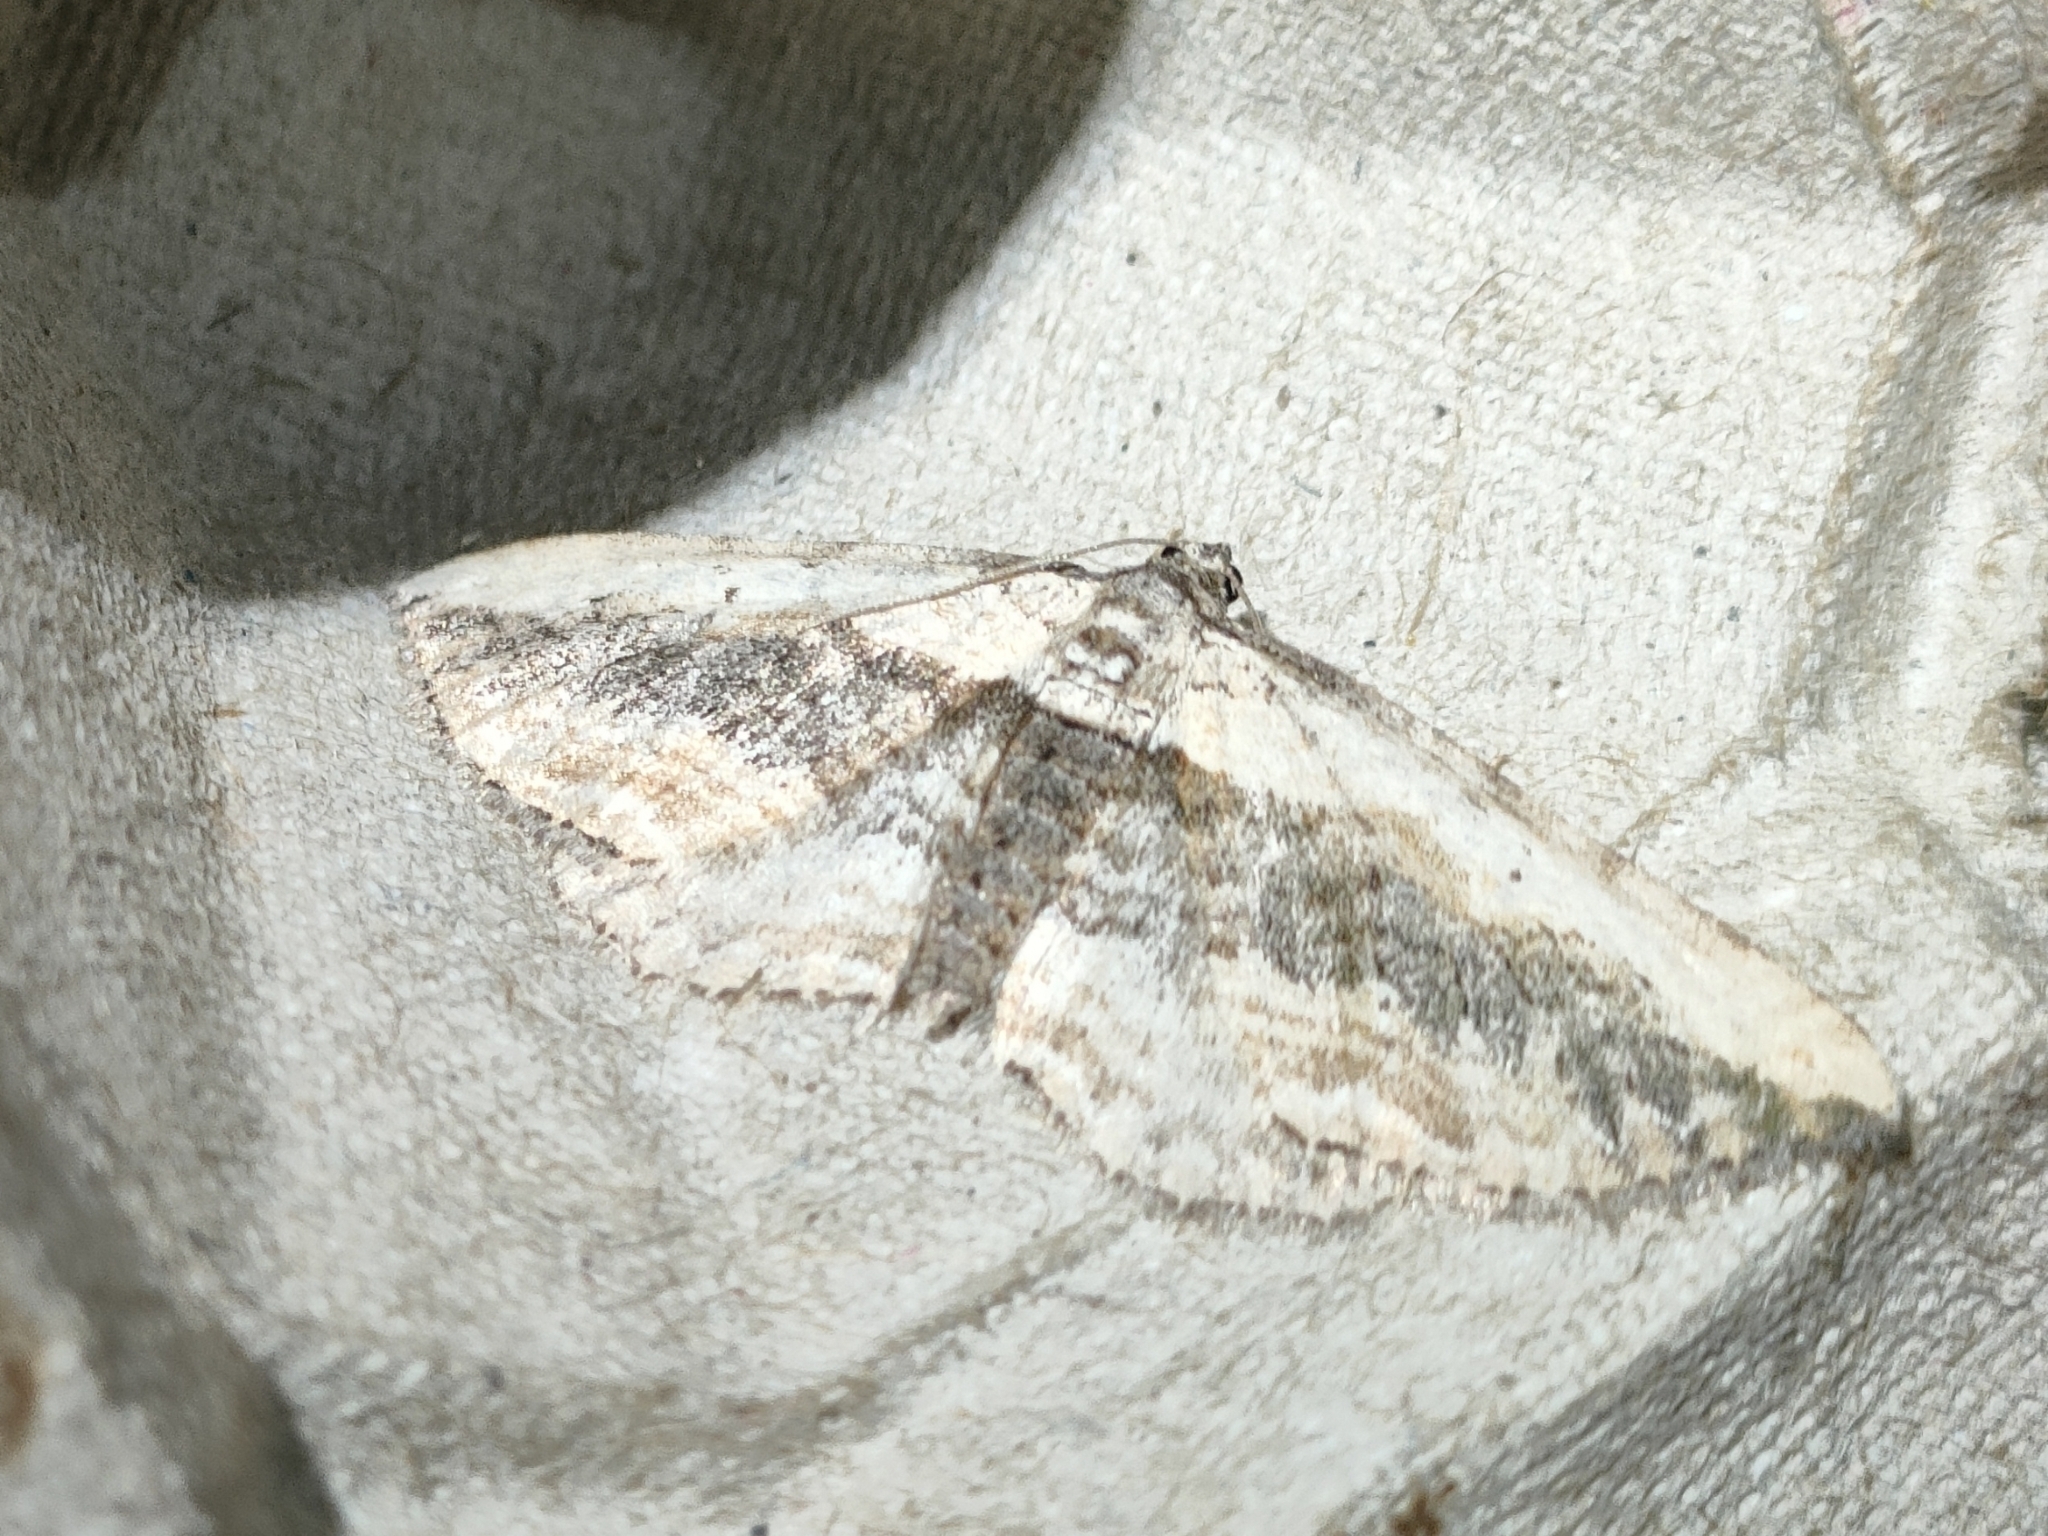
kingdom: Animalia
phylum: Arthropoda
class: Insecta
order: Lepidoptera
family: Geometridae
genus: Horisme
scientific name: Horisme vitalbata
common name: Small waved umber
